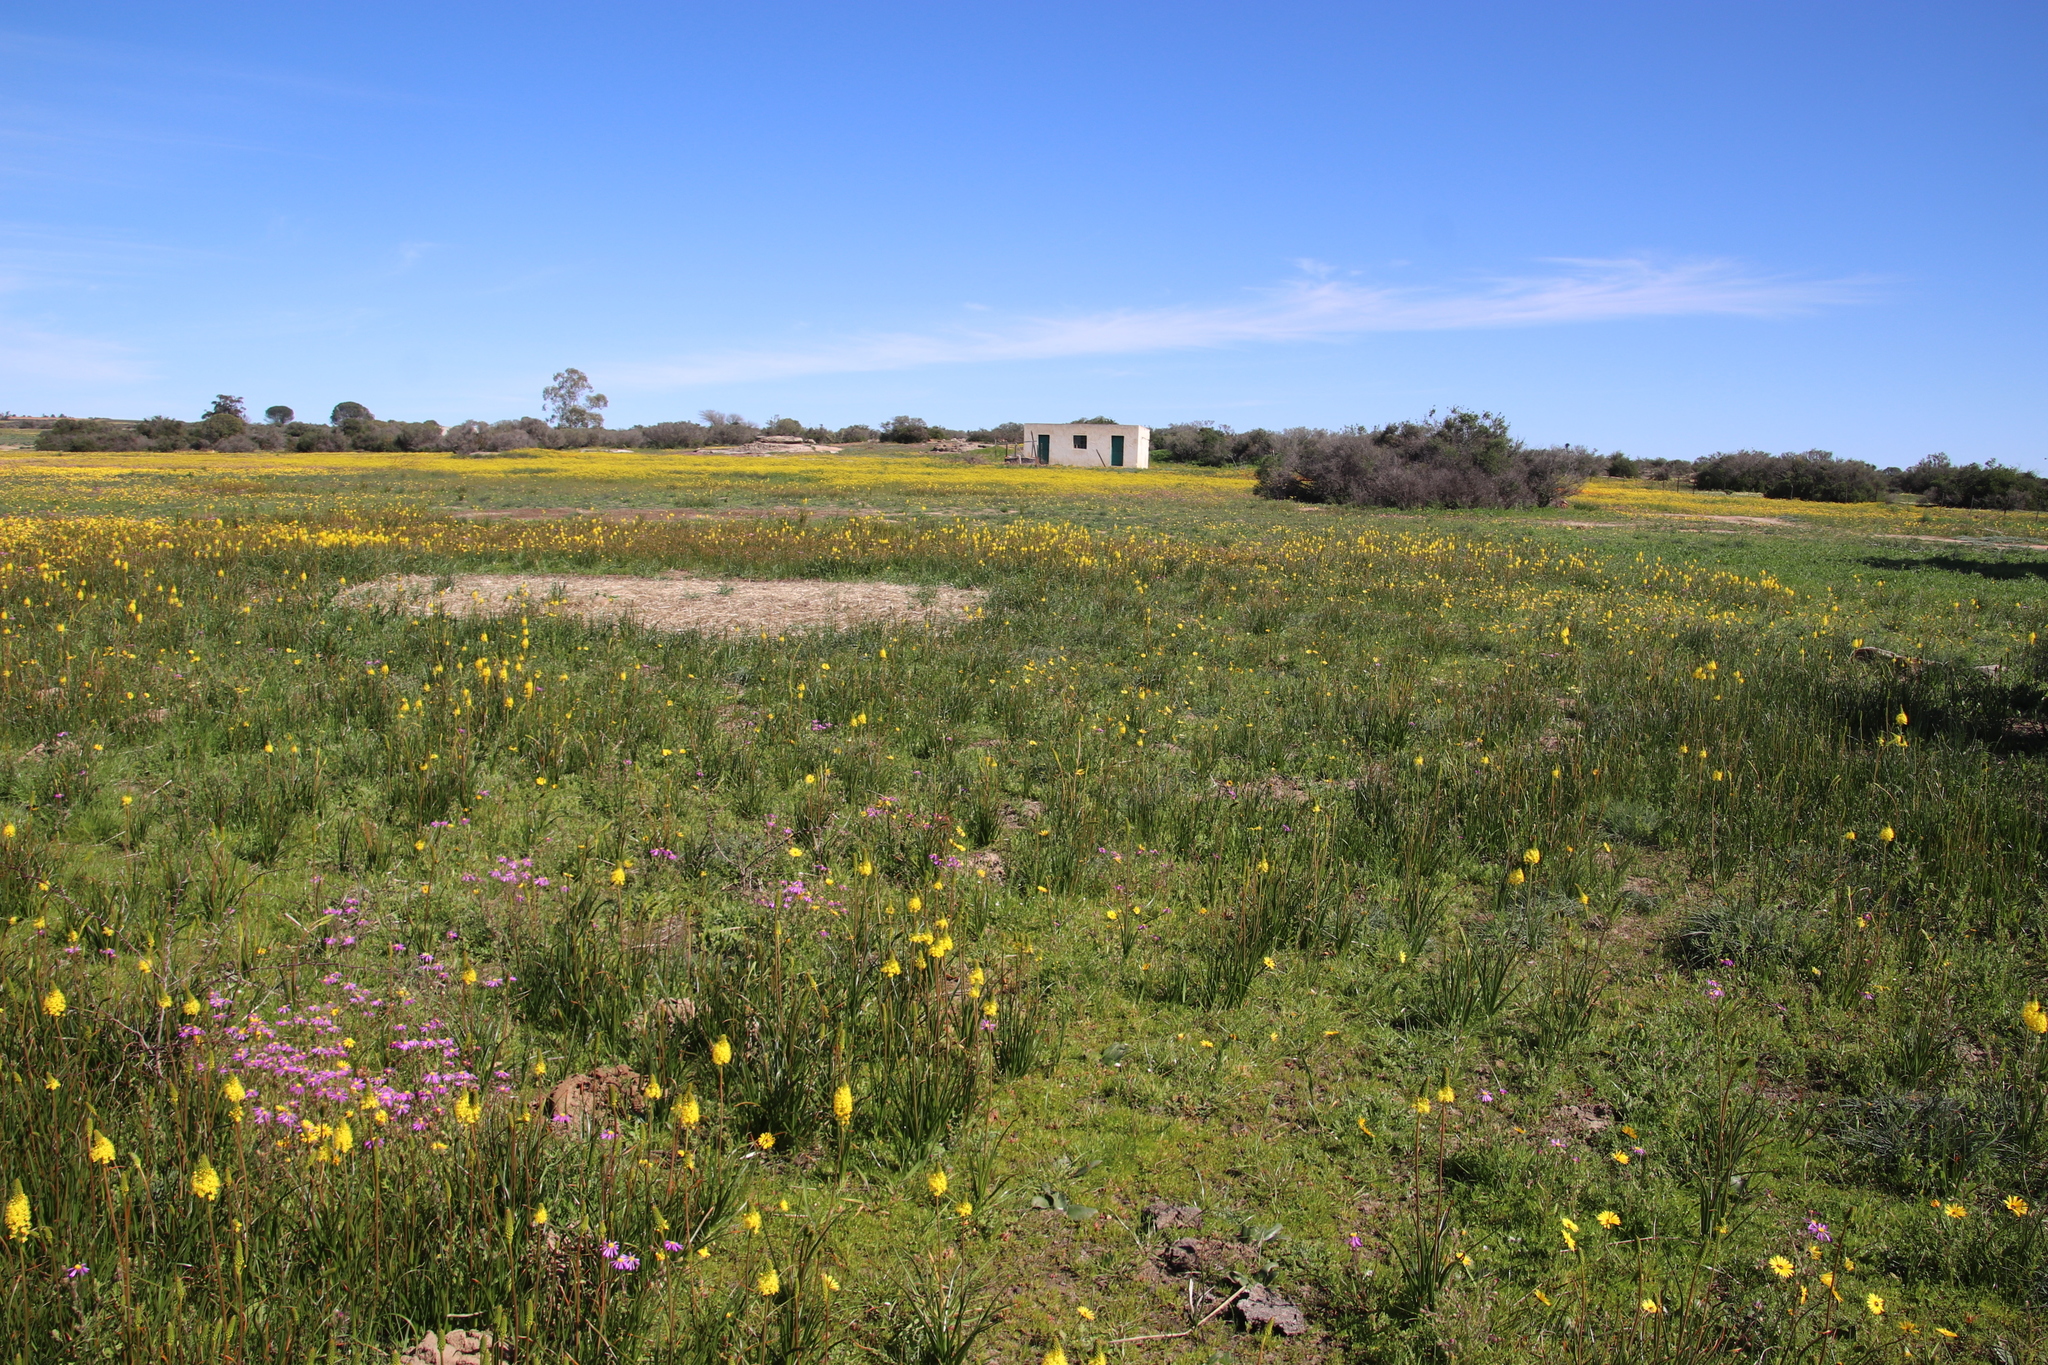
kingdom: Plantae
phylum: Tracheophyta
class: Liliopsida
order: Asparagales
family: Asphodelaceae
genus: Bulbinella
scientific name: Bulbinella nutans
